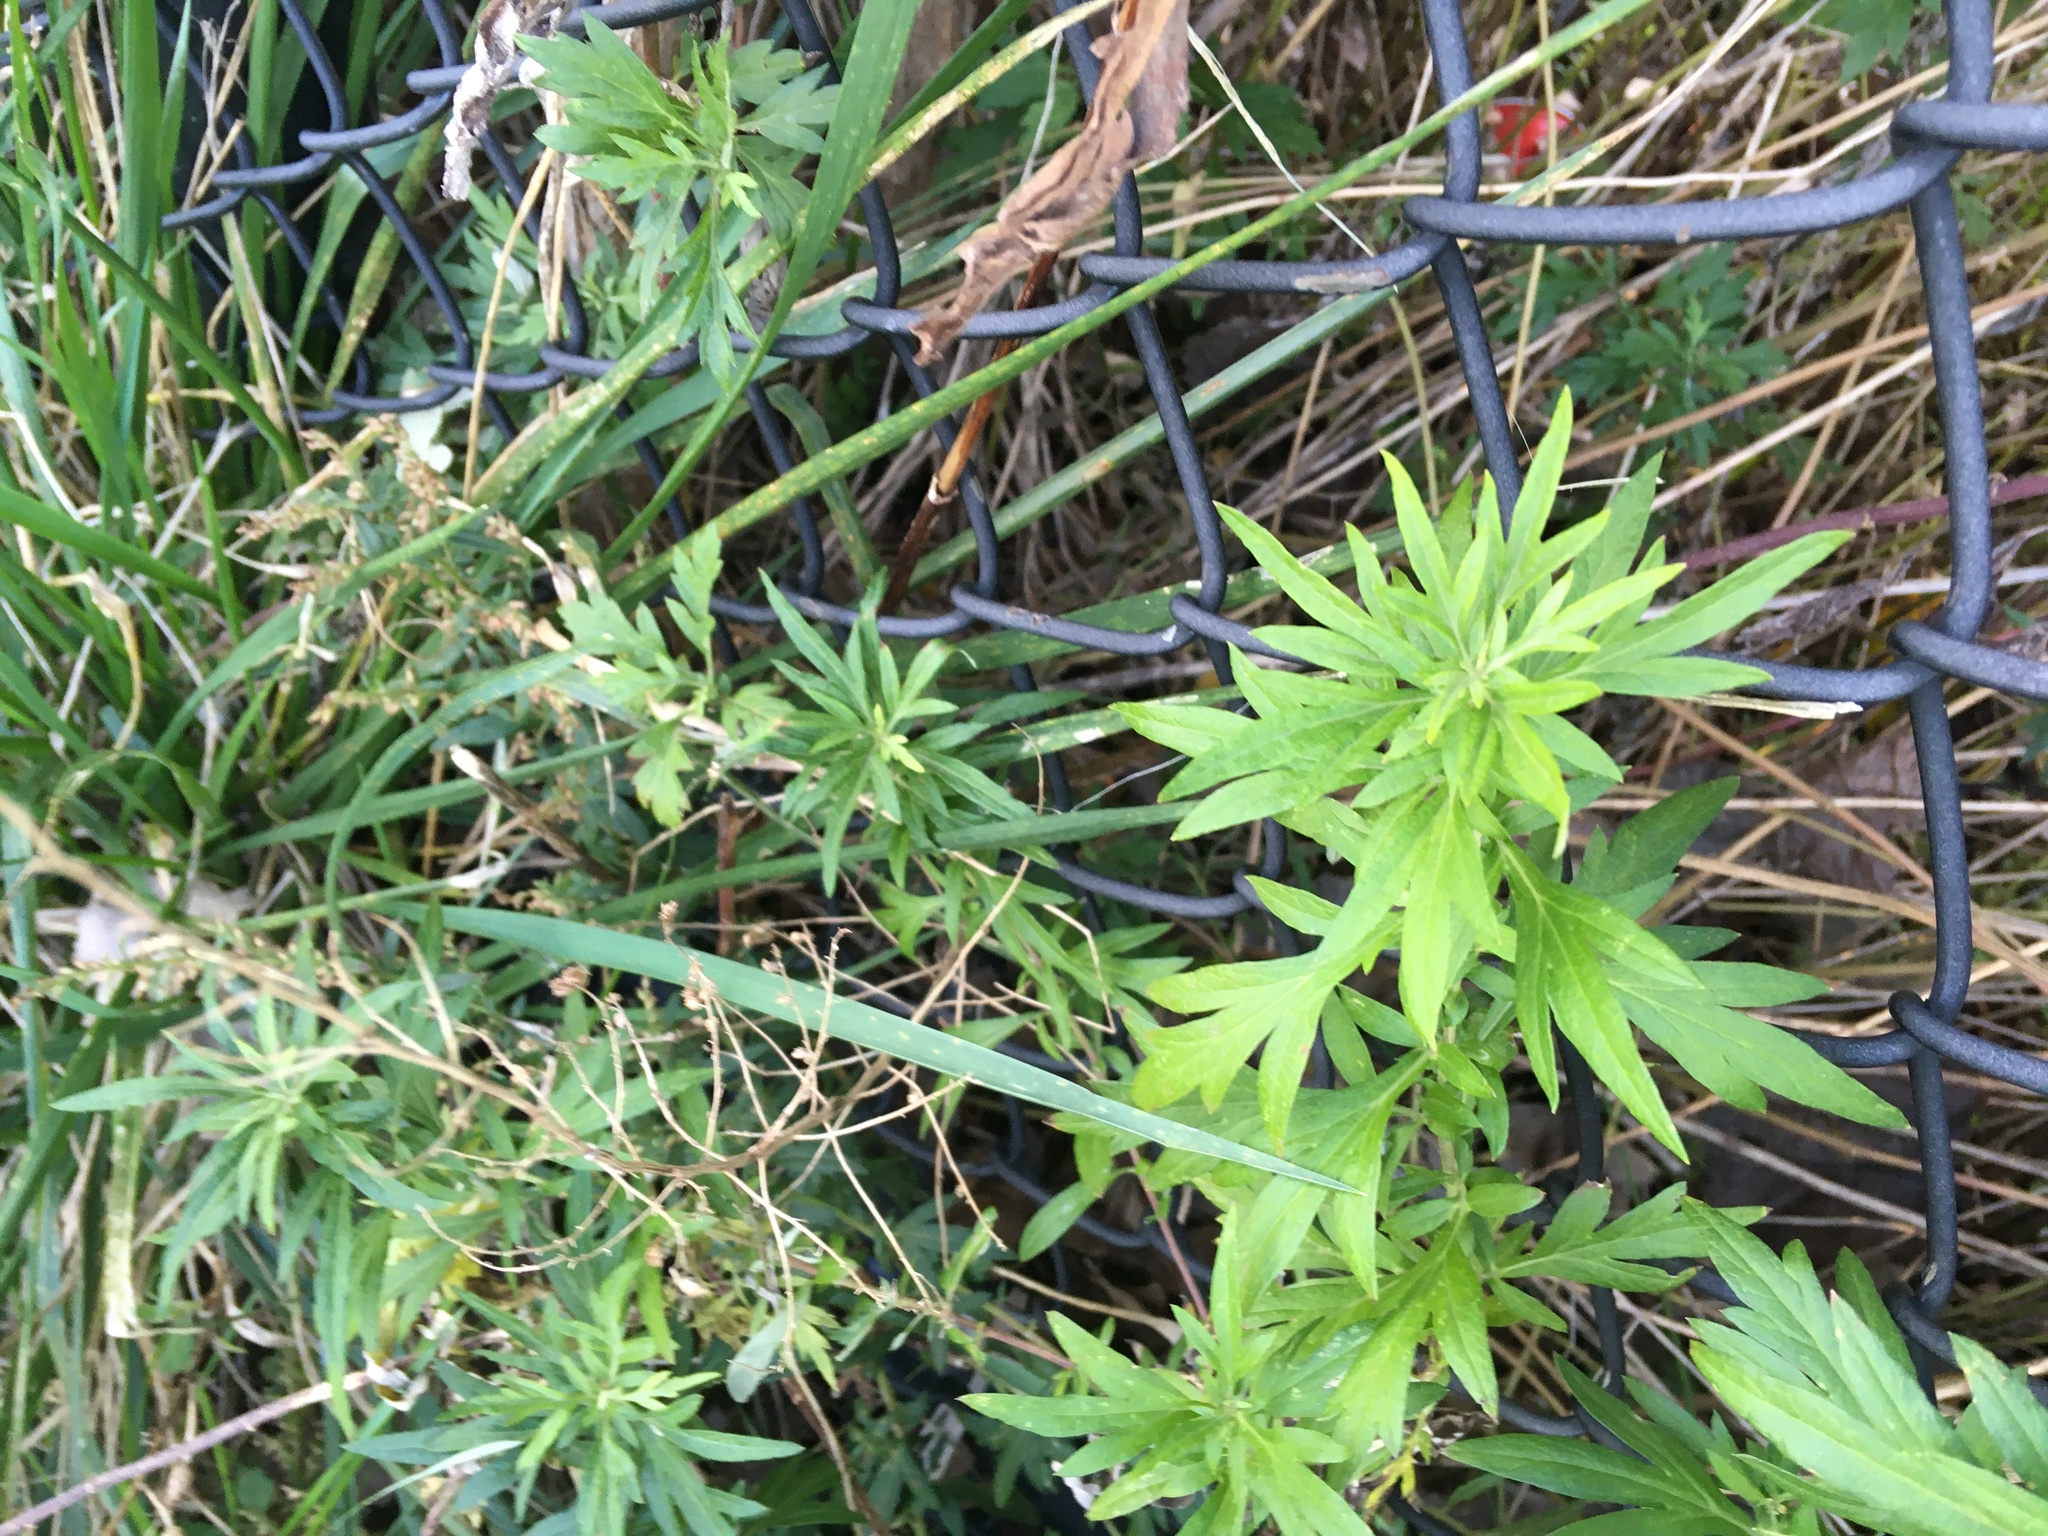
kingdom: Plantae
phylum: Tracheophyta
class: Magnoliopsida
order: Asterales
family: Asteraceae
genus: Artemisia
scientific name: Artemisia vulgaris
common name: Mugwort
